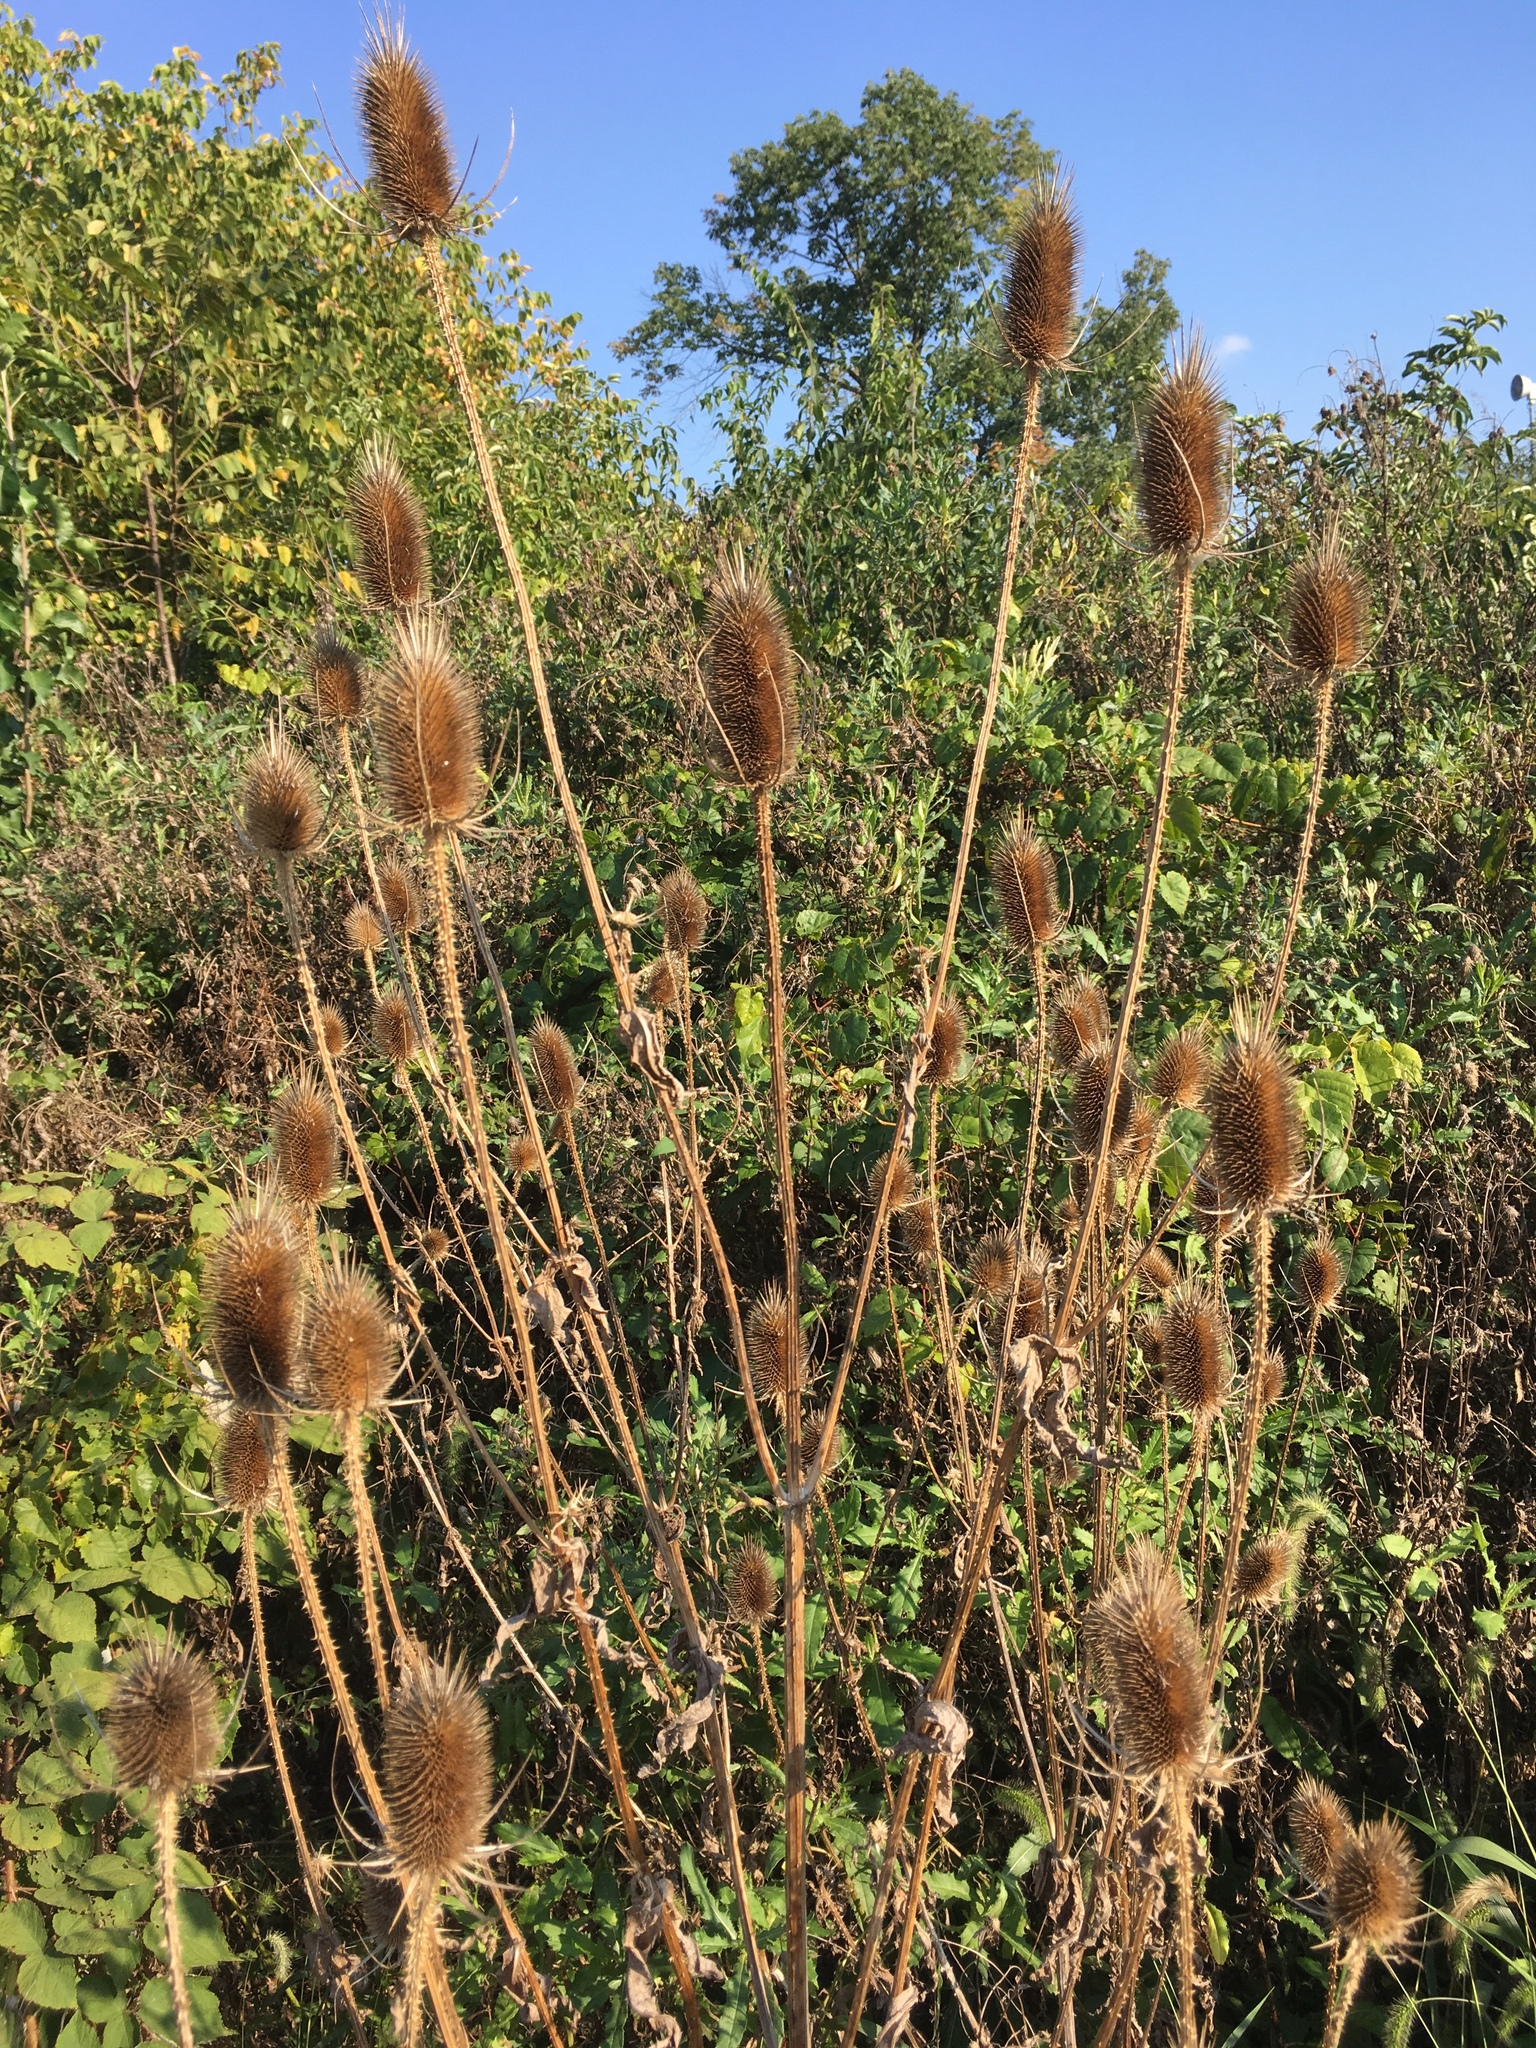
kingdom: Plantae
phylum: Tracheophyta
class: Magnoliopsida
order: Dipsacales
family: Caprifoliaceae
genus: Dipsacus
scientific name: Dipsacus fullonum
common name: Teasel
